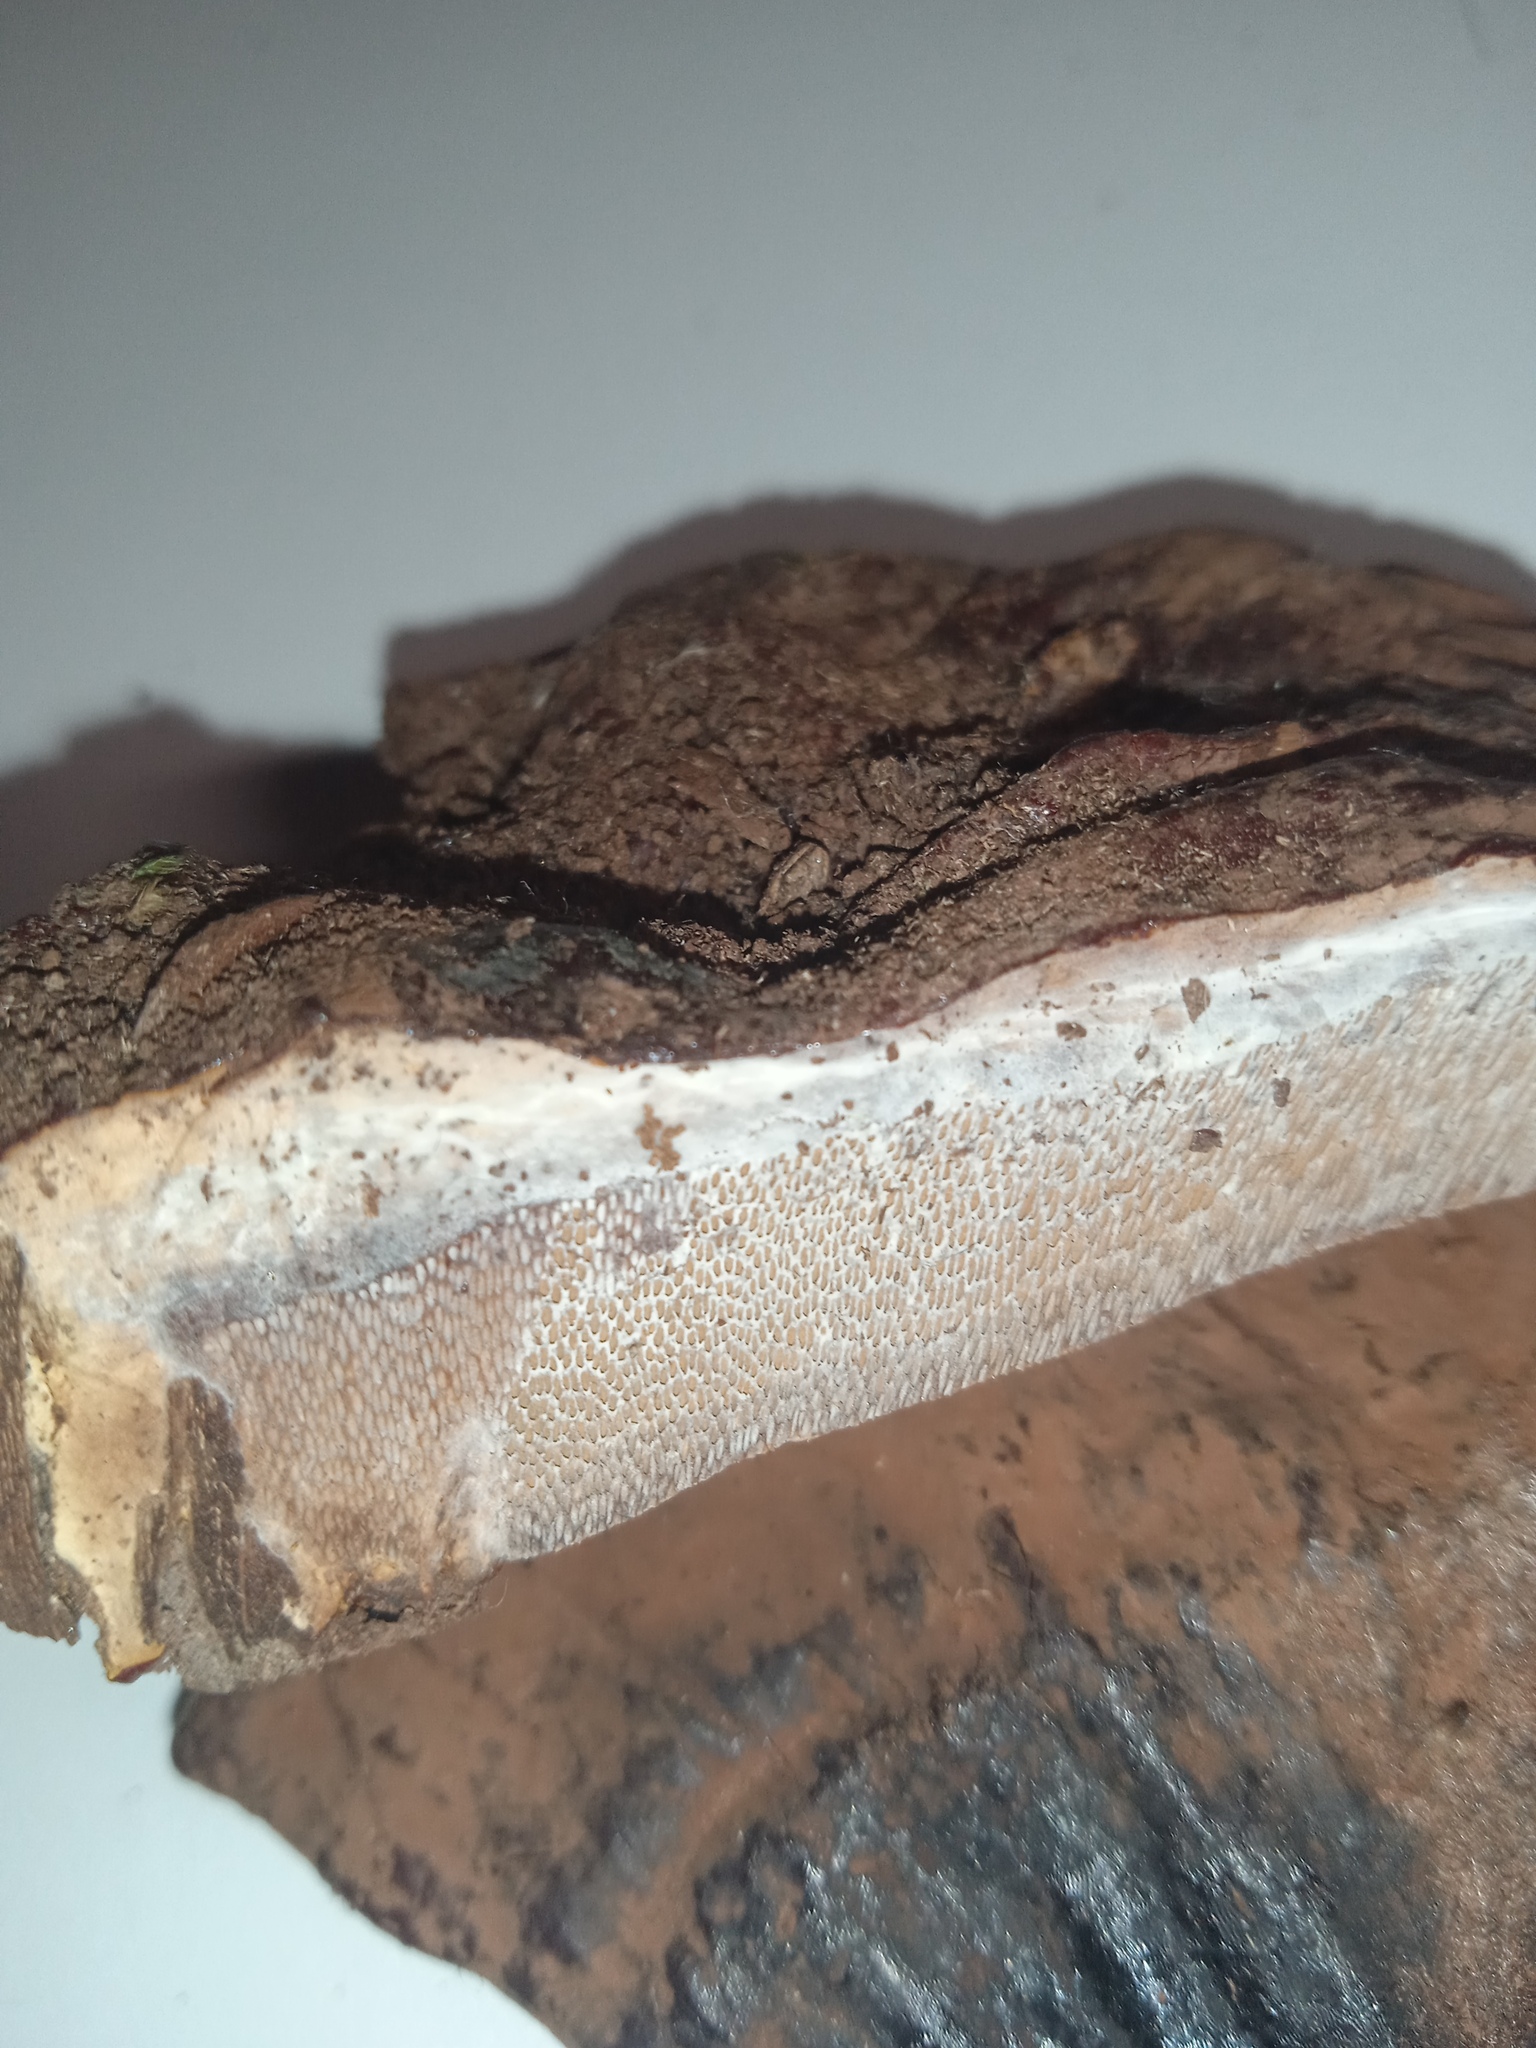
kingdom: Fungi
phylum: Basidiomycota
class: Agaricomycetes
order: Polyporales
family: Polyporaceae
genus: Ganoderma
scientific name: Ganoderma applanatum
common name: Artist's bracket
